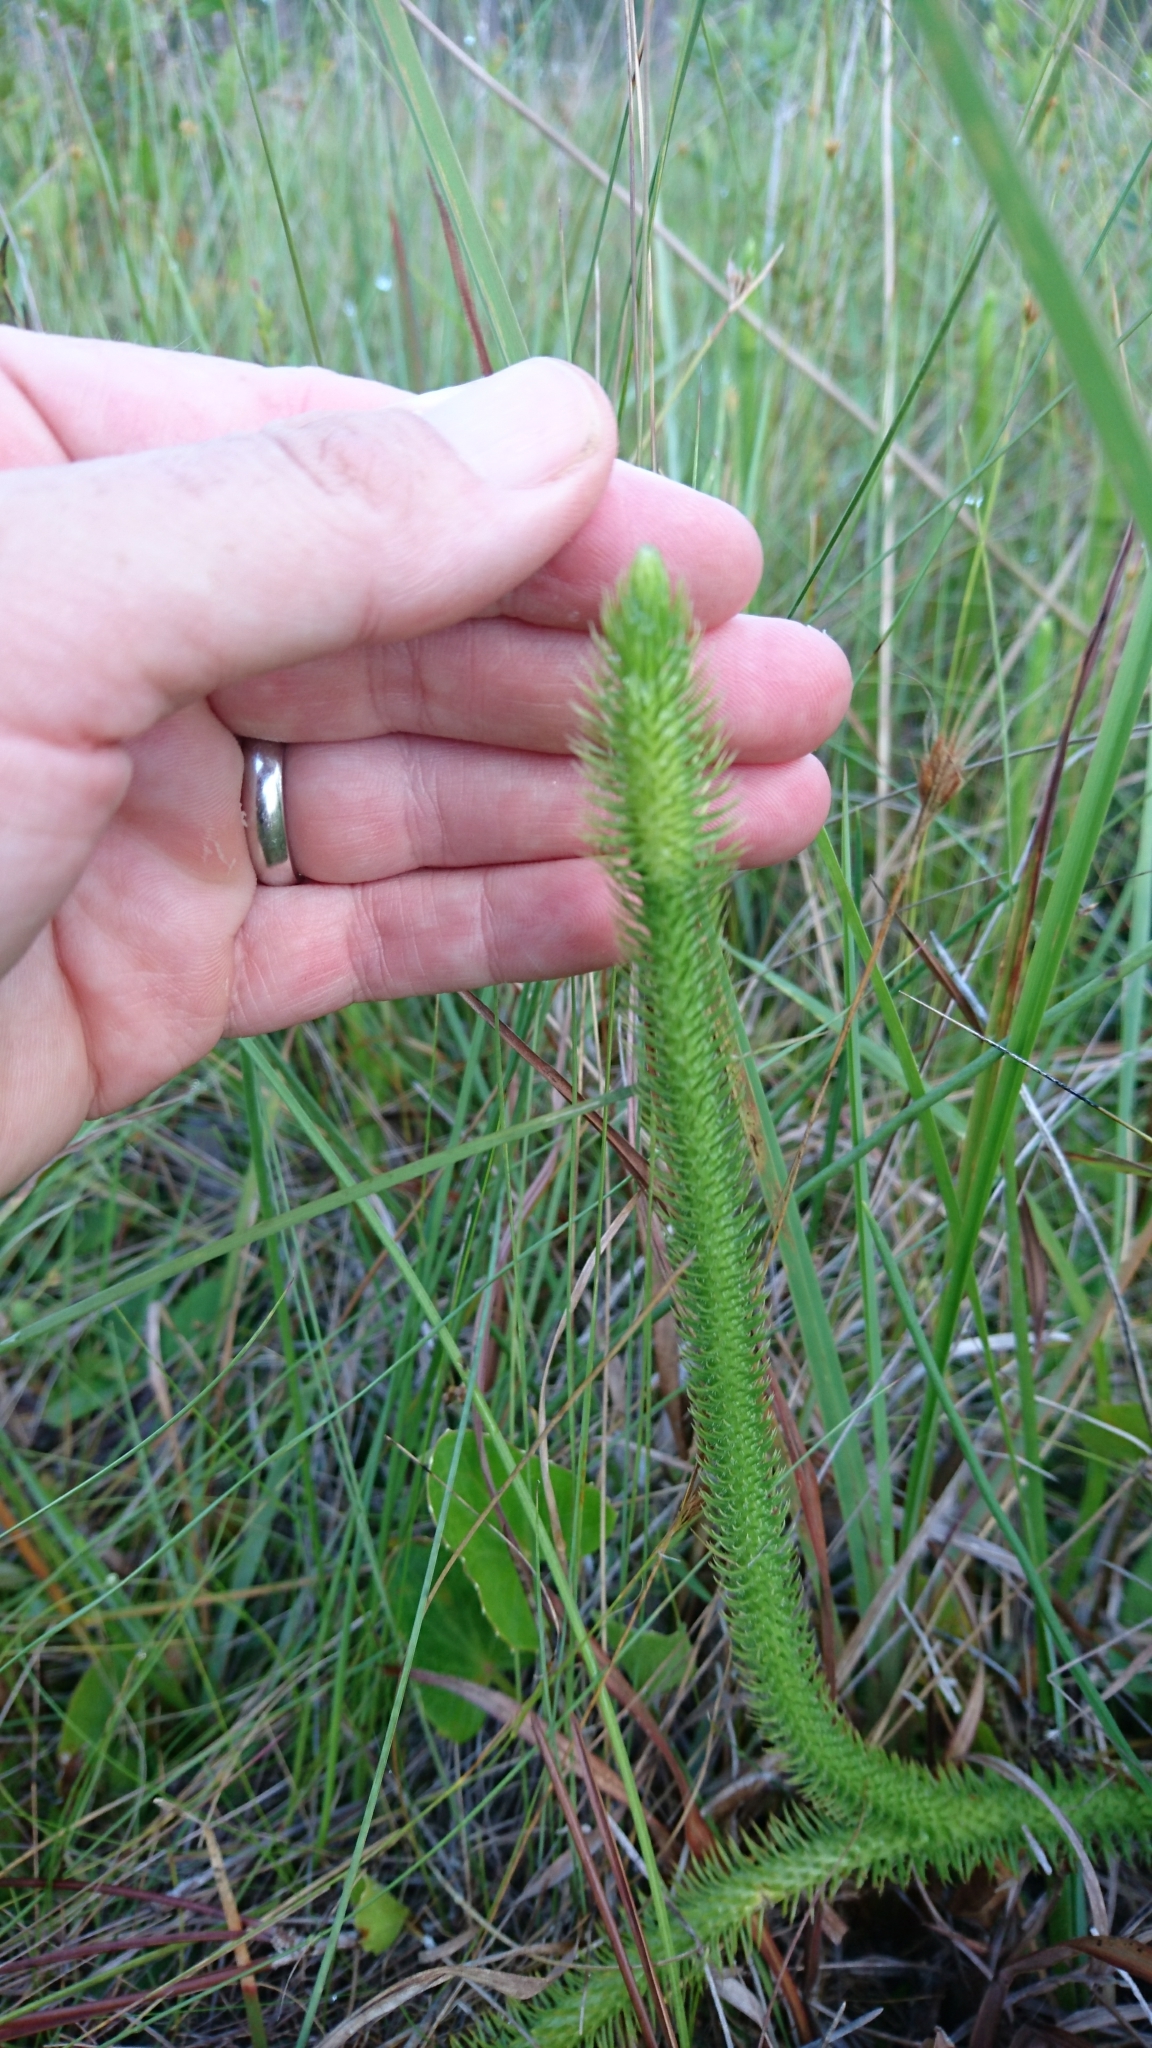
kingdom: Plantae
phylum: Tracheophyta
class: Lycopodiopsida
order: Lycopodiales
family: Lycopodiaceae
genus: Lycopodiella
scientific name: Lycopodiella alopecuroides
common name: Foxtail clubmoss
